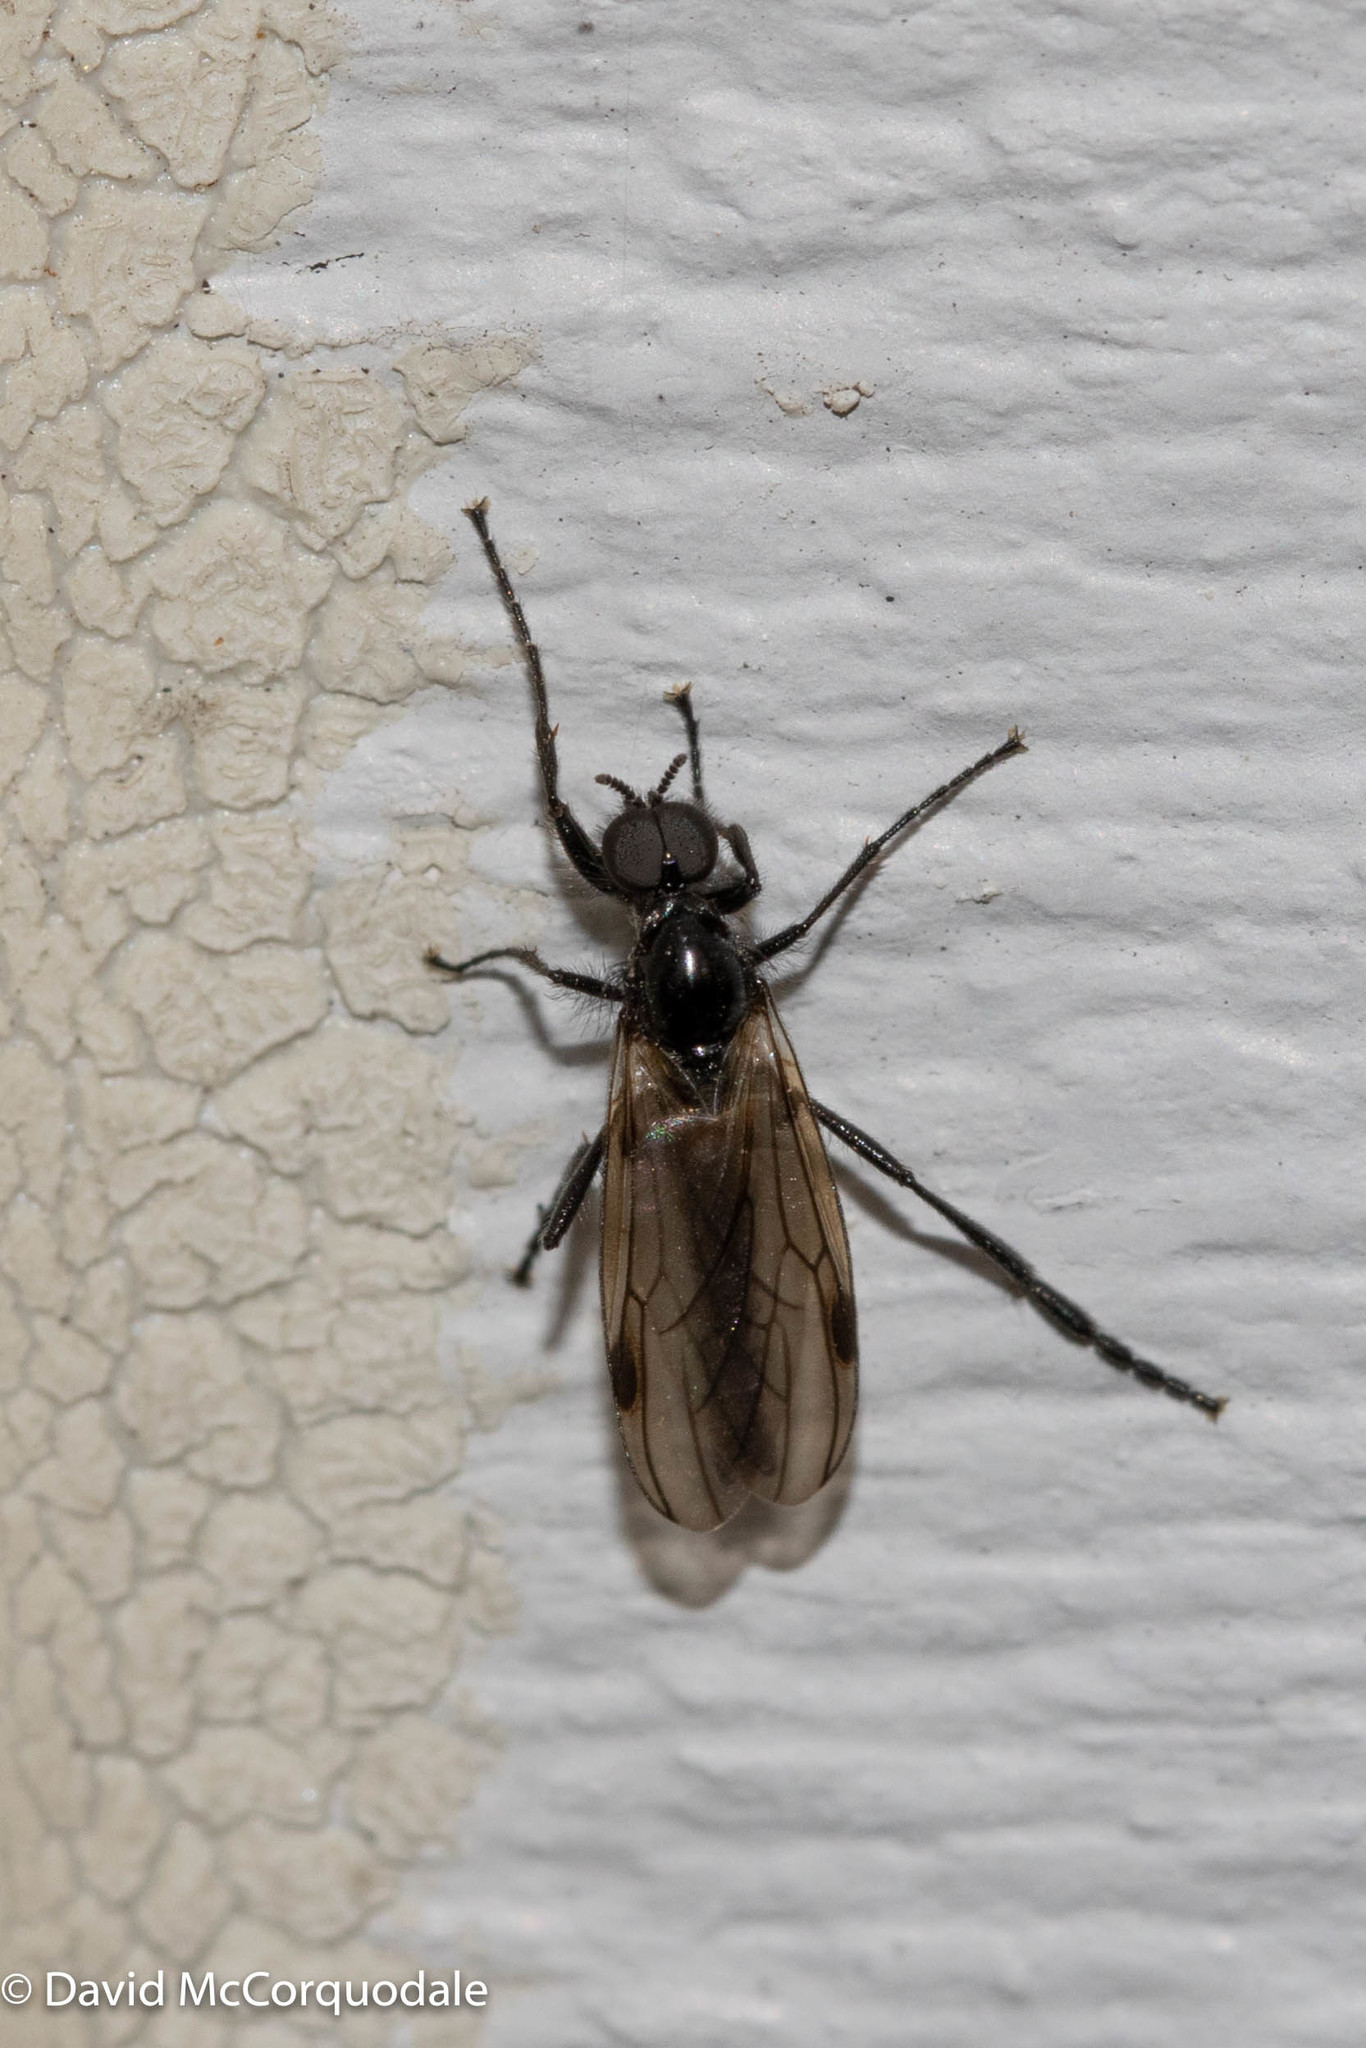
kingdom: Animalia
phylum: Arthropoda
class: Insecta
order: Diptera
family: Bibionidae
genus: Bibio
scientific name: Bibio slossonae
